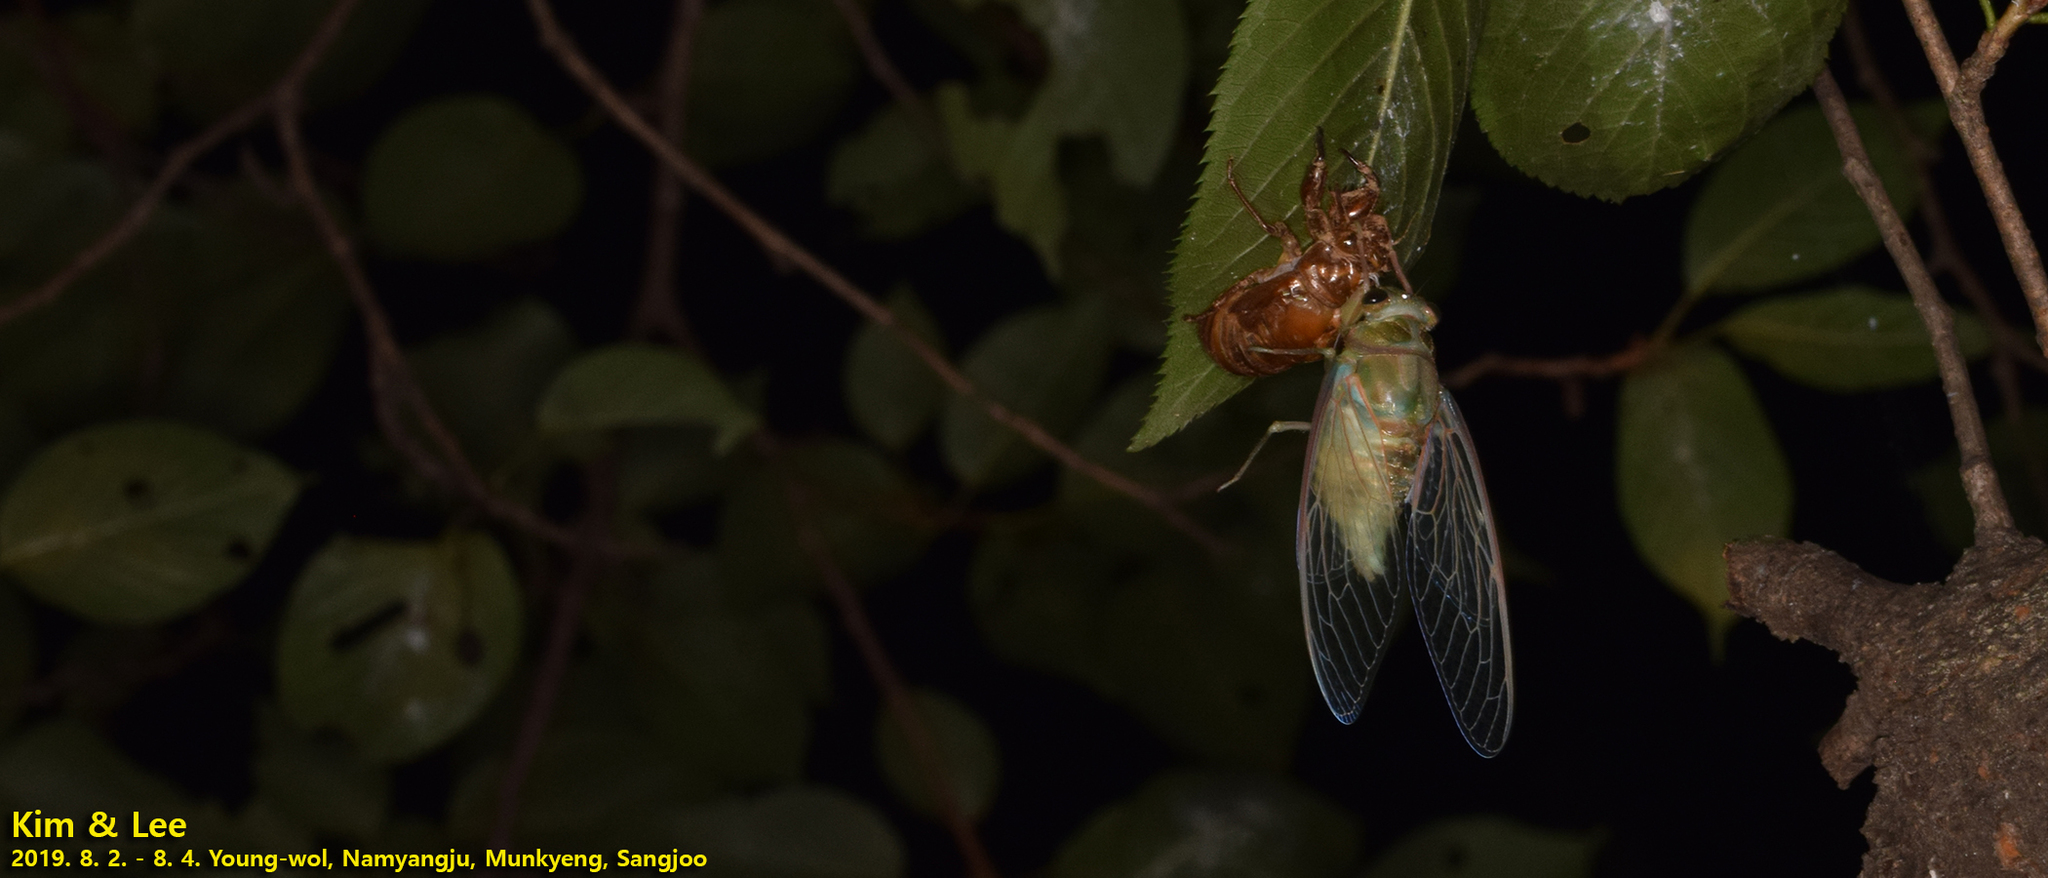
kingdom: Animalia
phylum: Arthropoda
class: Insecta
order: Hemiptera
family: Cicadidae
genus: Hyalessa
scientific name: Hyalessa maculaticollis
